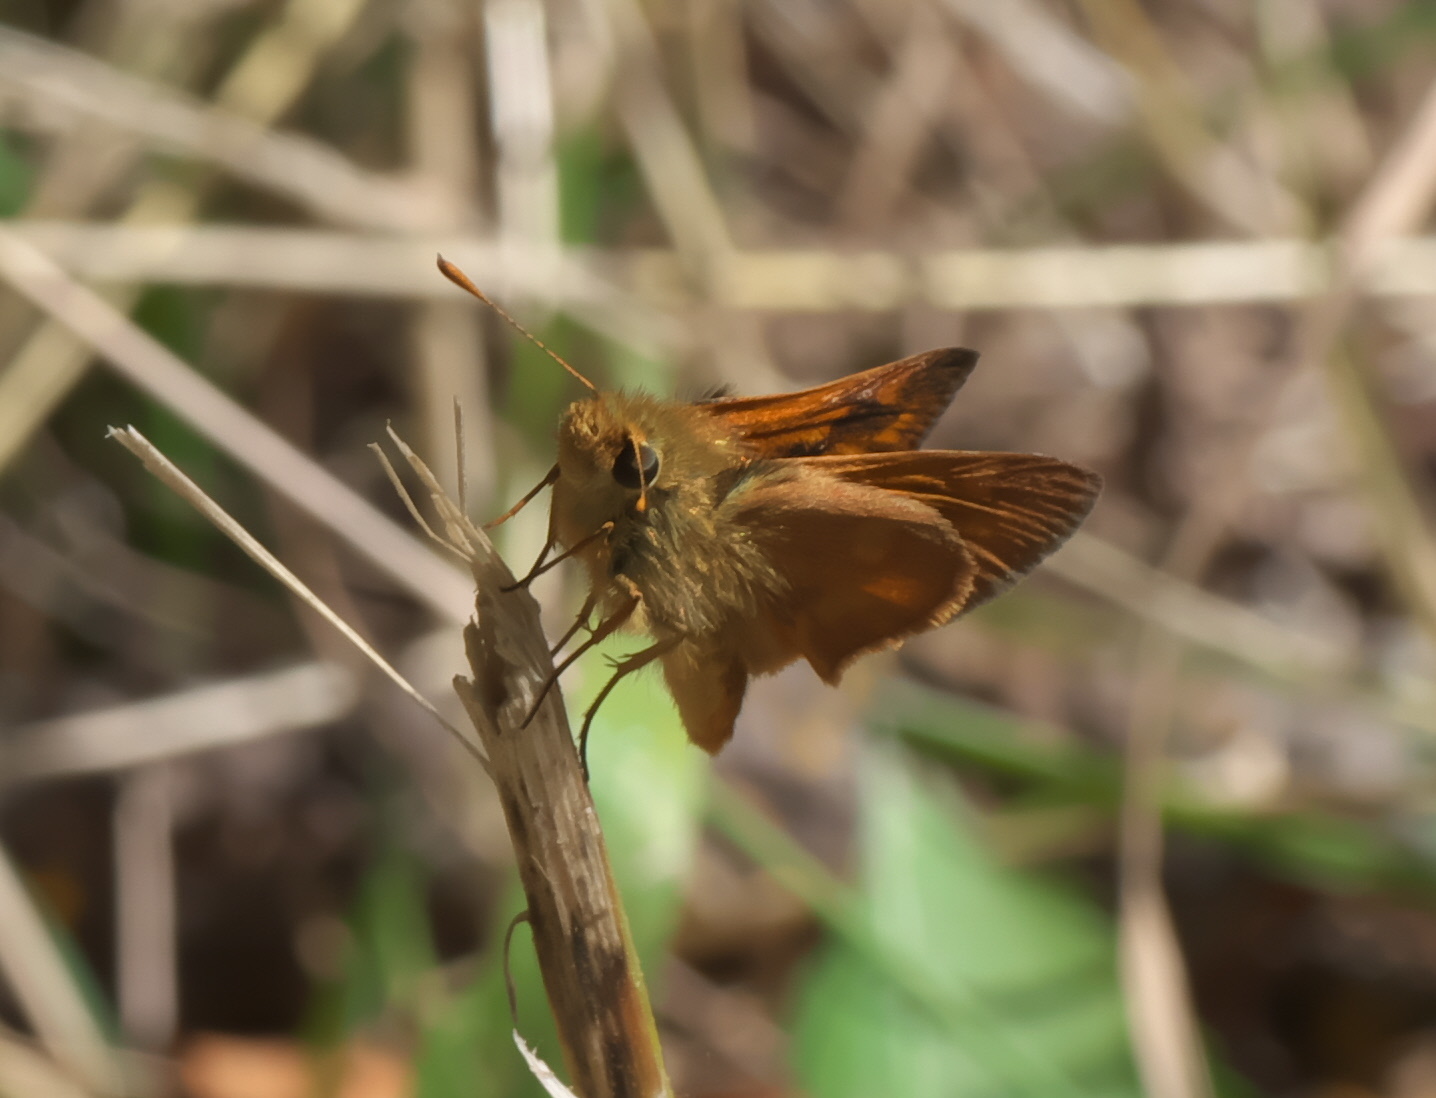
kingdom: Animalia
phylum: Arthropoda
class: Insecta
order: Lepidoptera
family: Hesperiidae
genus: Ochlodes
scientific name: Ochlodes sylvanoides
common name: Woodland skipper
